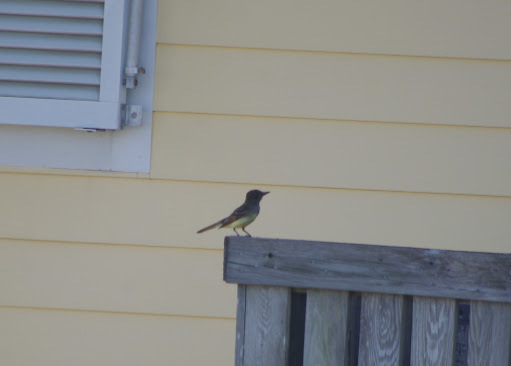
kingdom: Animalia
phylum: Chordata
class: Aves
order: Passeriformes
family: Tyrannidae
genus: Myiarchus
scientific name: Myiarchus crinitus
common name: Great crested flycatcher
